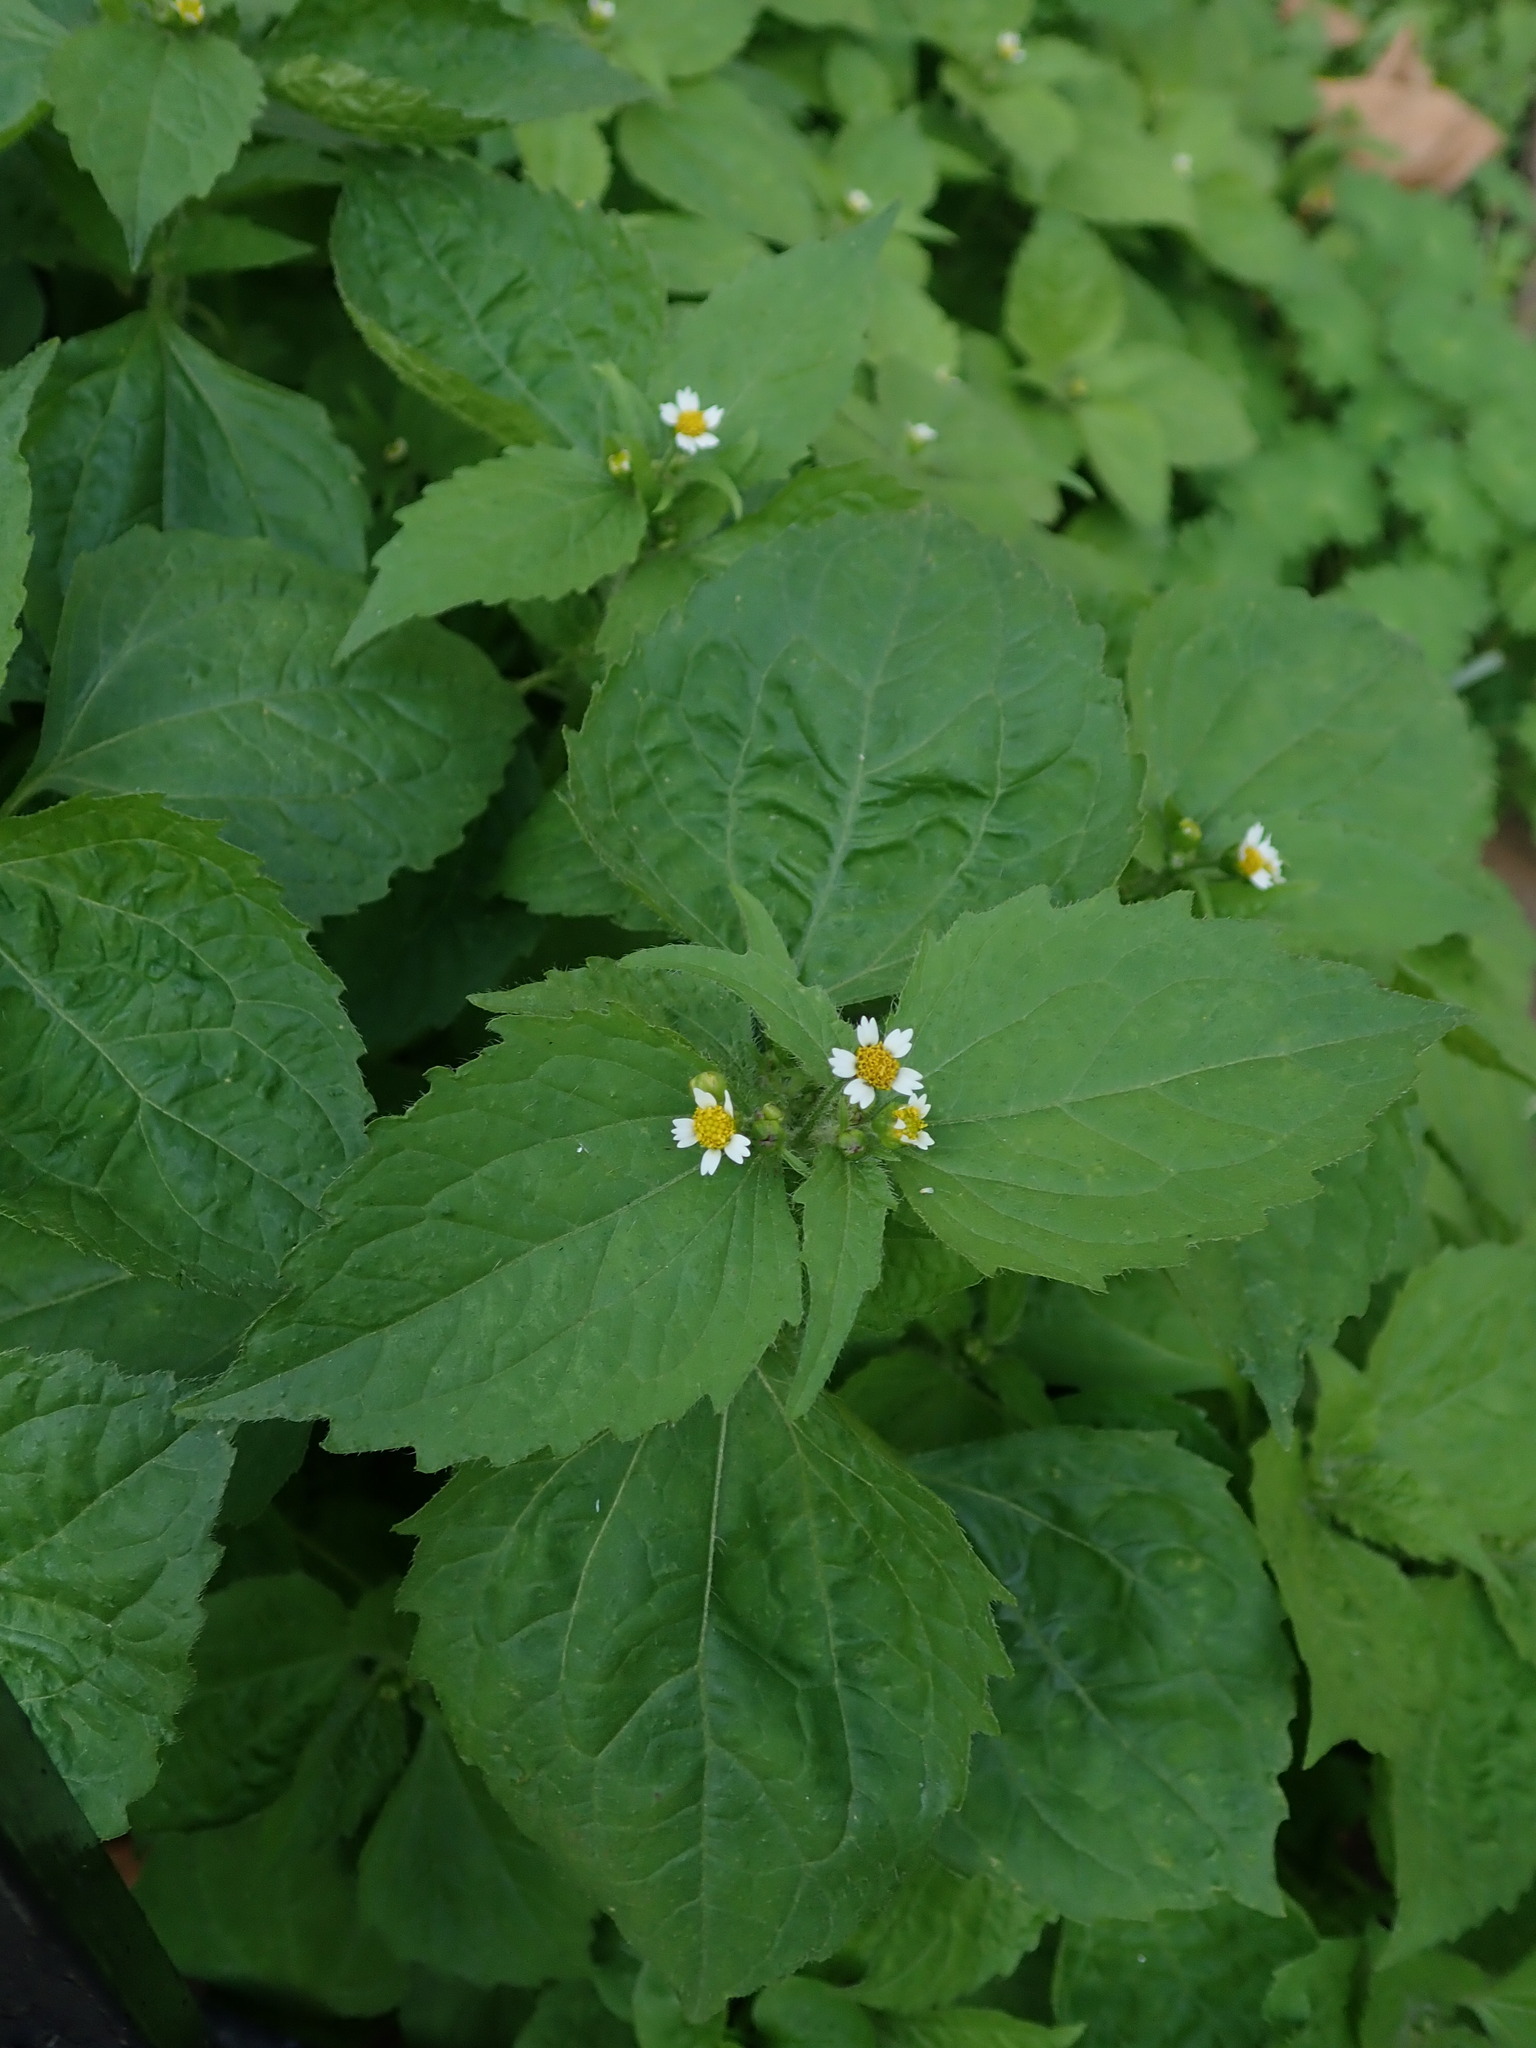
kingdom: Plantae
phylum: Tracheophyta
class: Magnoliopsida
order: Asterales
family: Asteraceae
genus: Galinsoga
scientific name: Galinsoga quadriradiata
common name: Shaggy soldier
